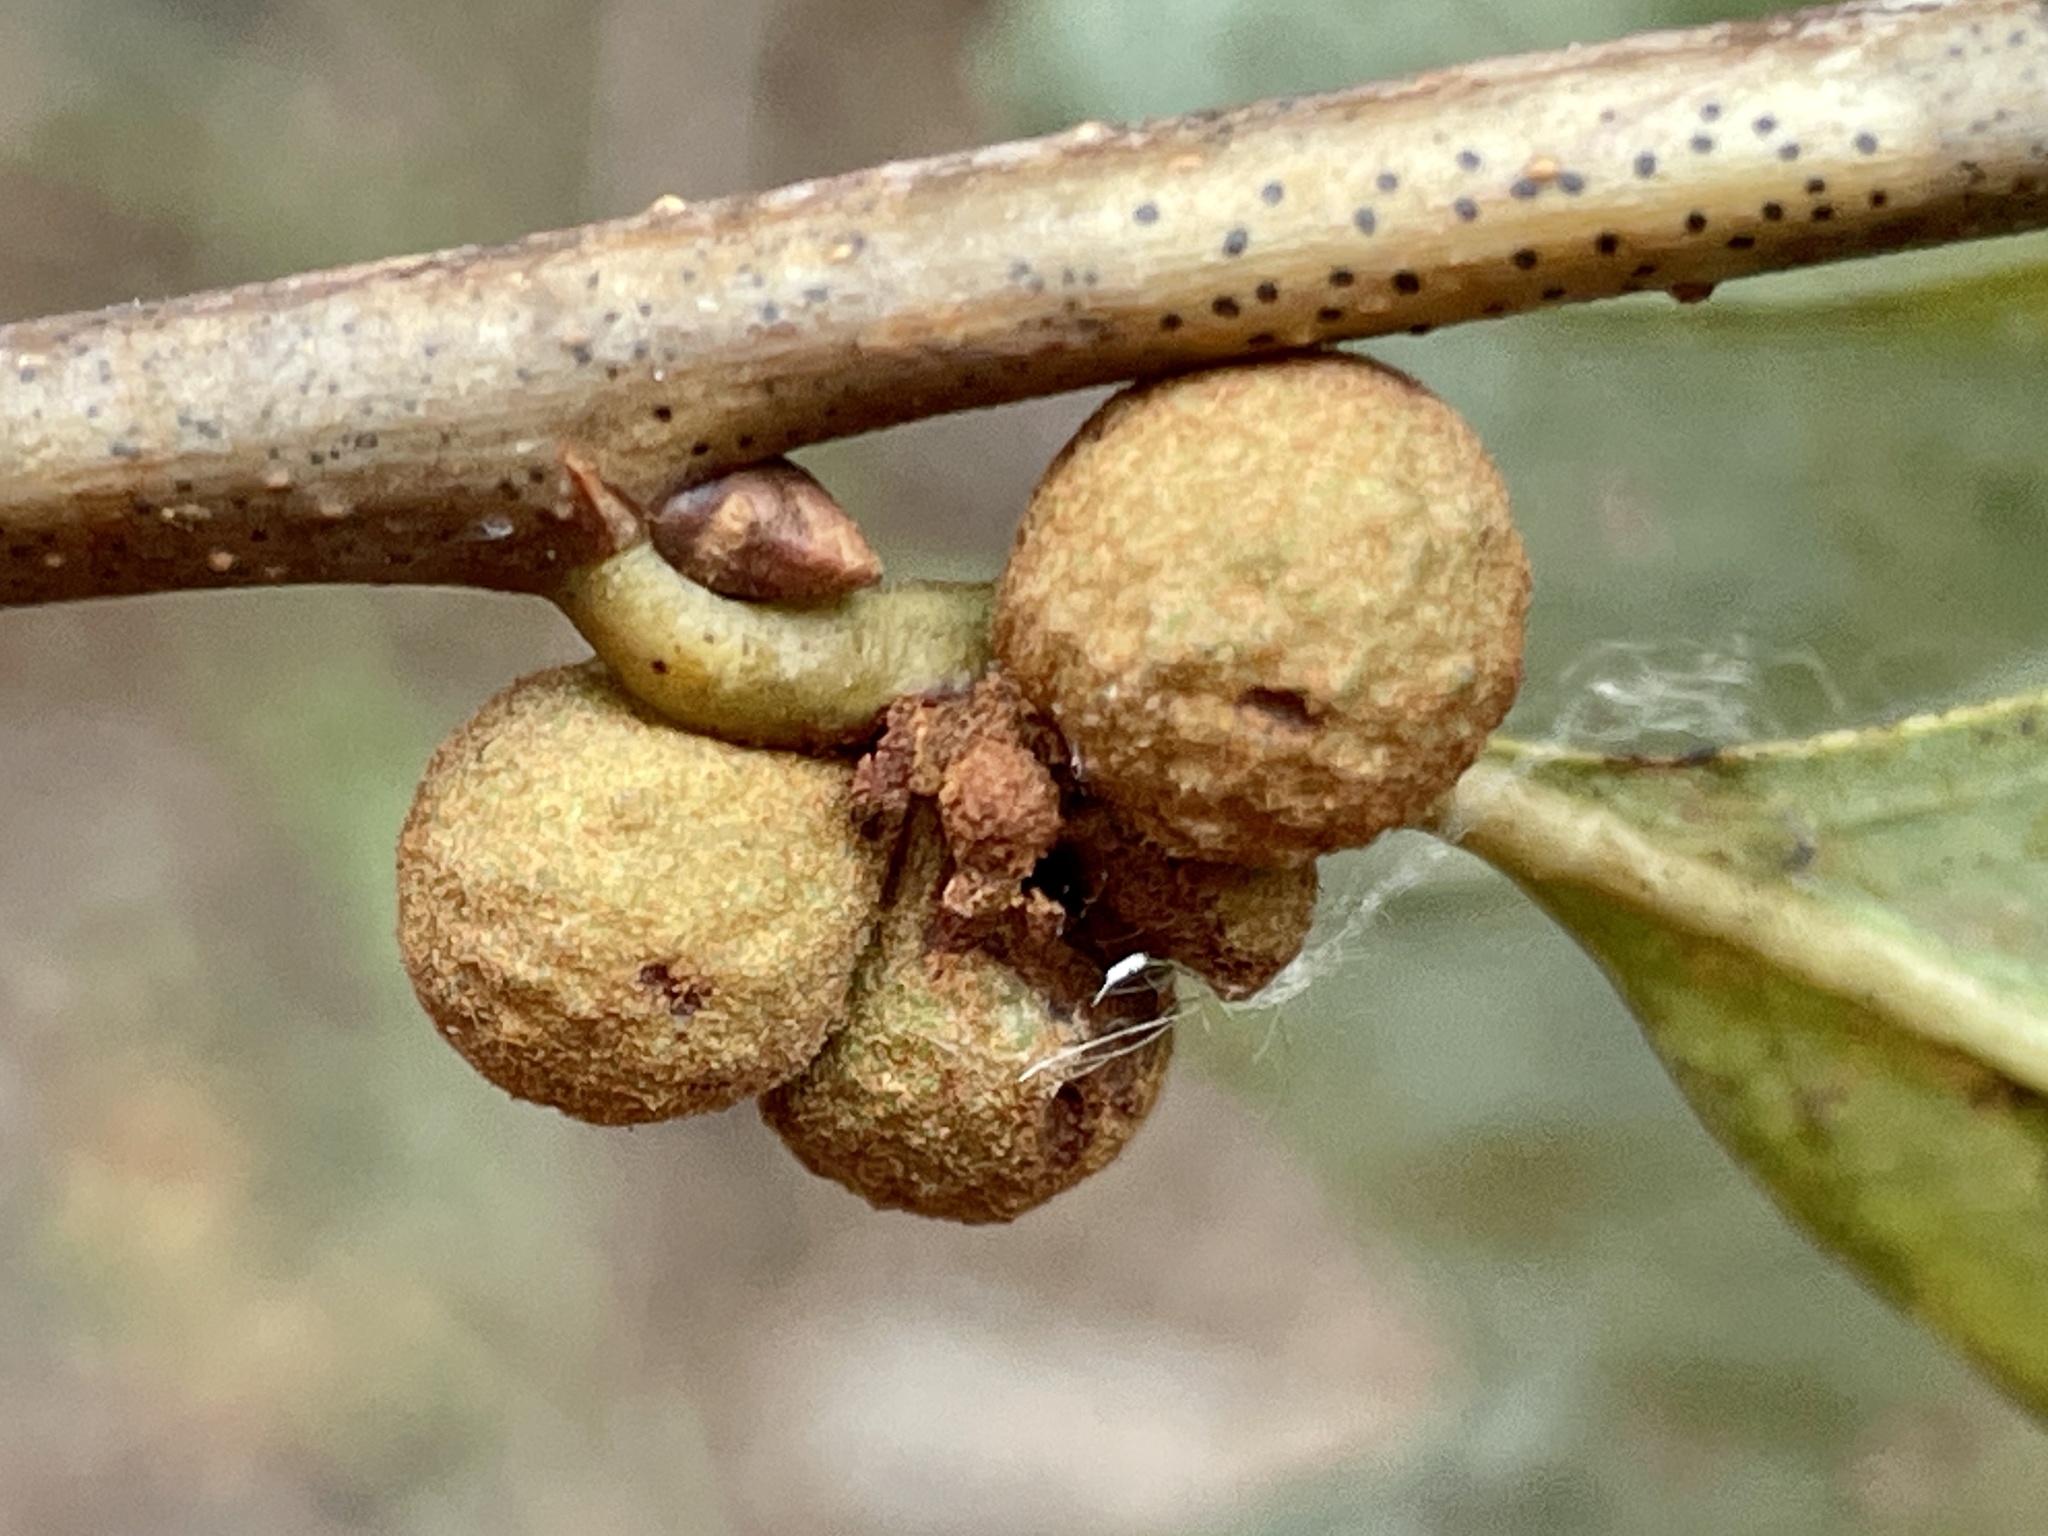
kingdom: Animalia
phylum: Arthropoda
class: Insecta
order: Hymenoptera
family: Cynipidae
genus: Andricus
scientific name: Andricus
